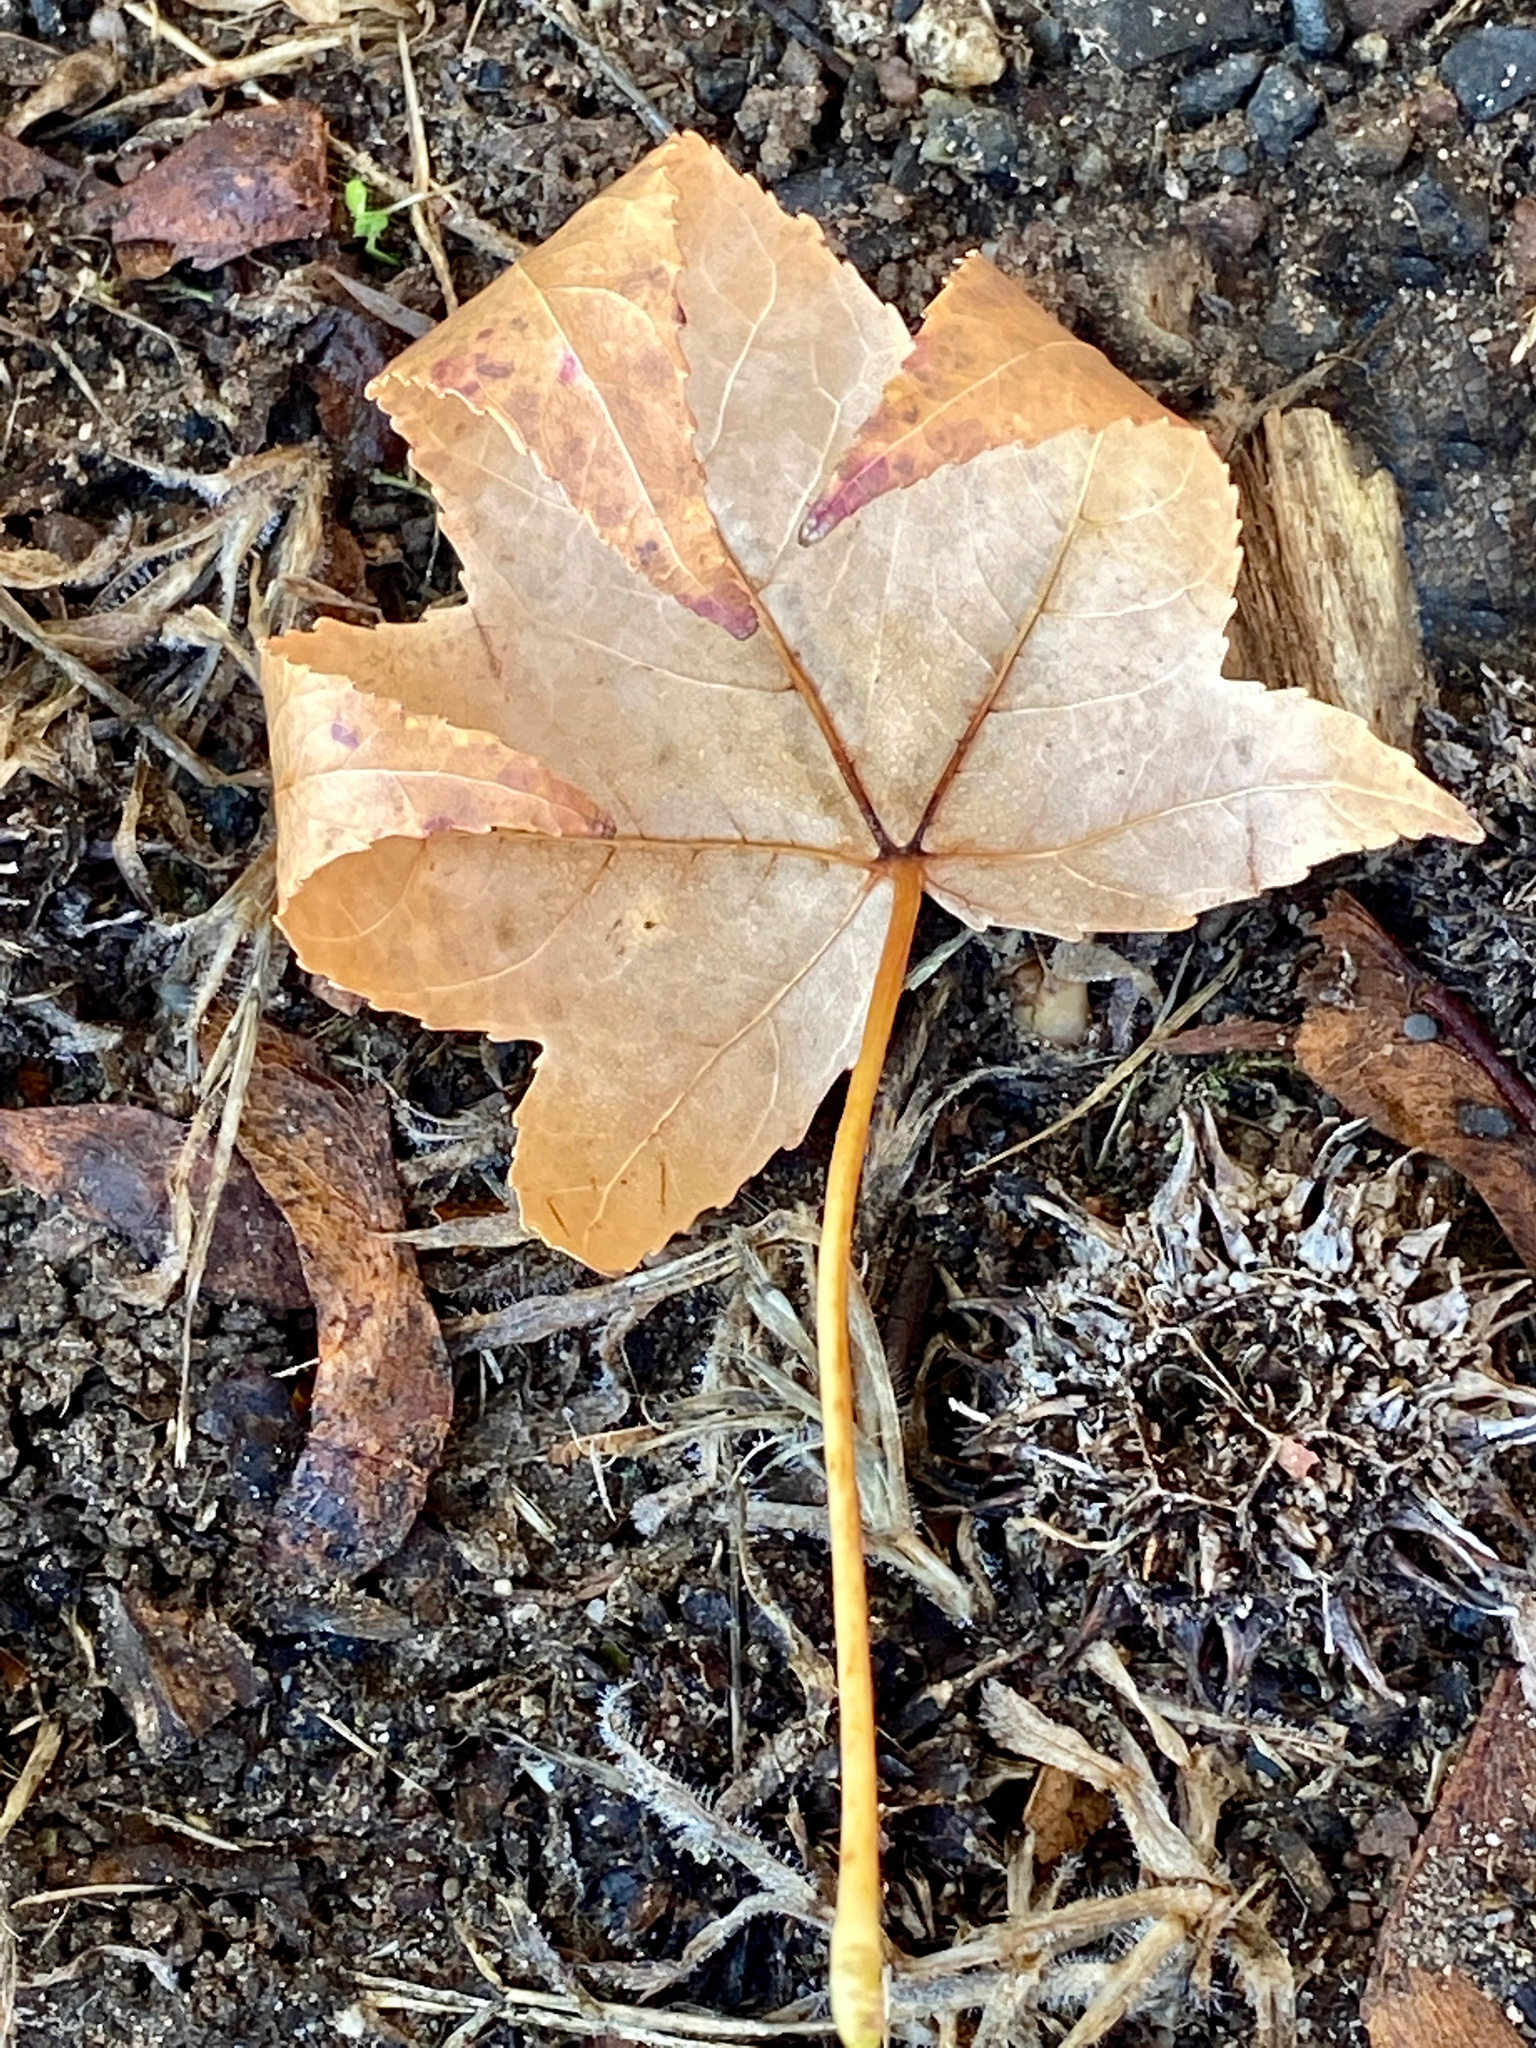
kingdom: Plantae
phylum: Tracheophyta
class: Magnoliopsida
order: Saxifragales
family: Altingiaceae
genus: Liquidambar
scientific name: Liquidambar styraciflua
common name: Sweet gum
